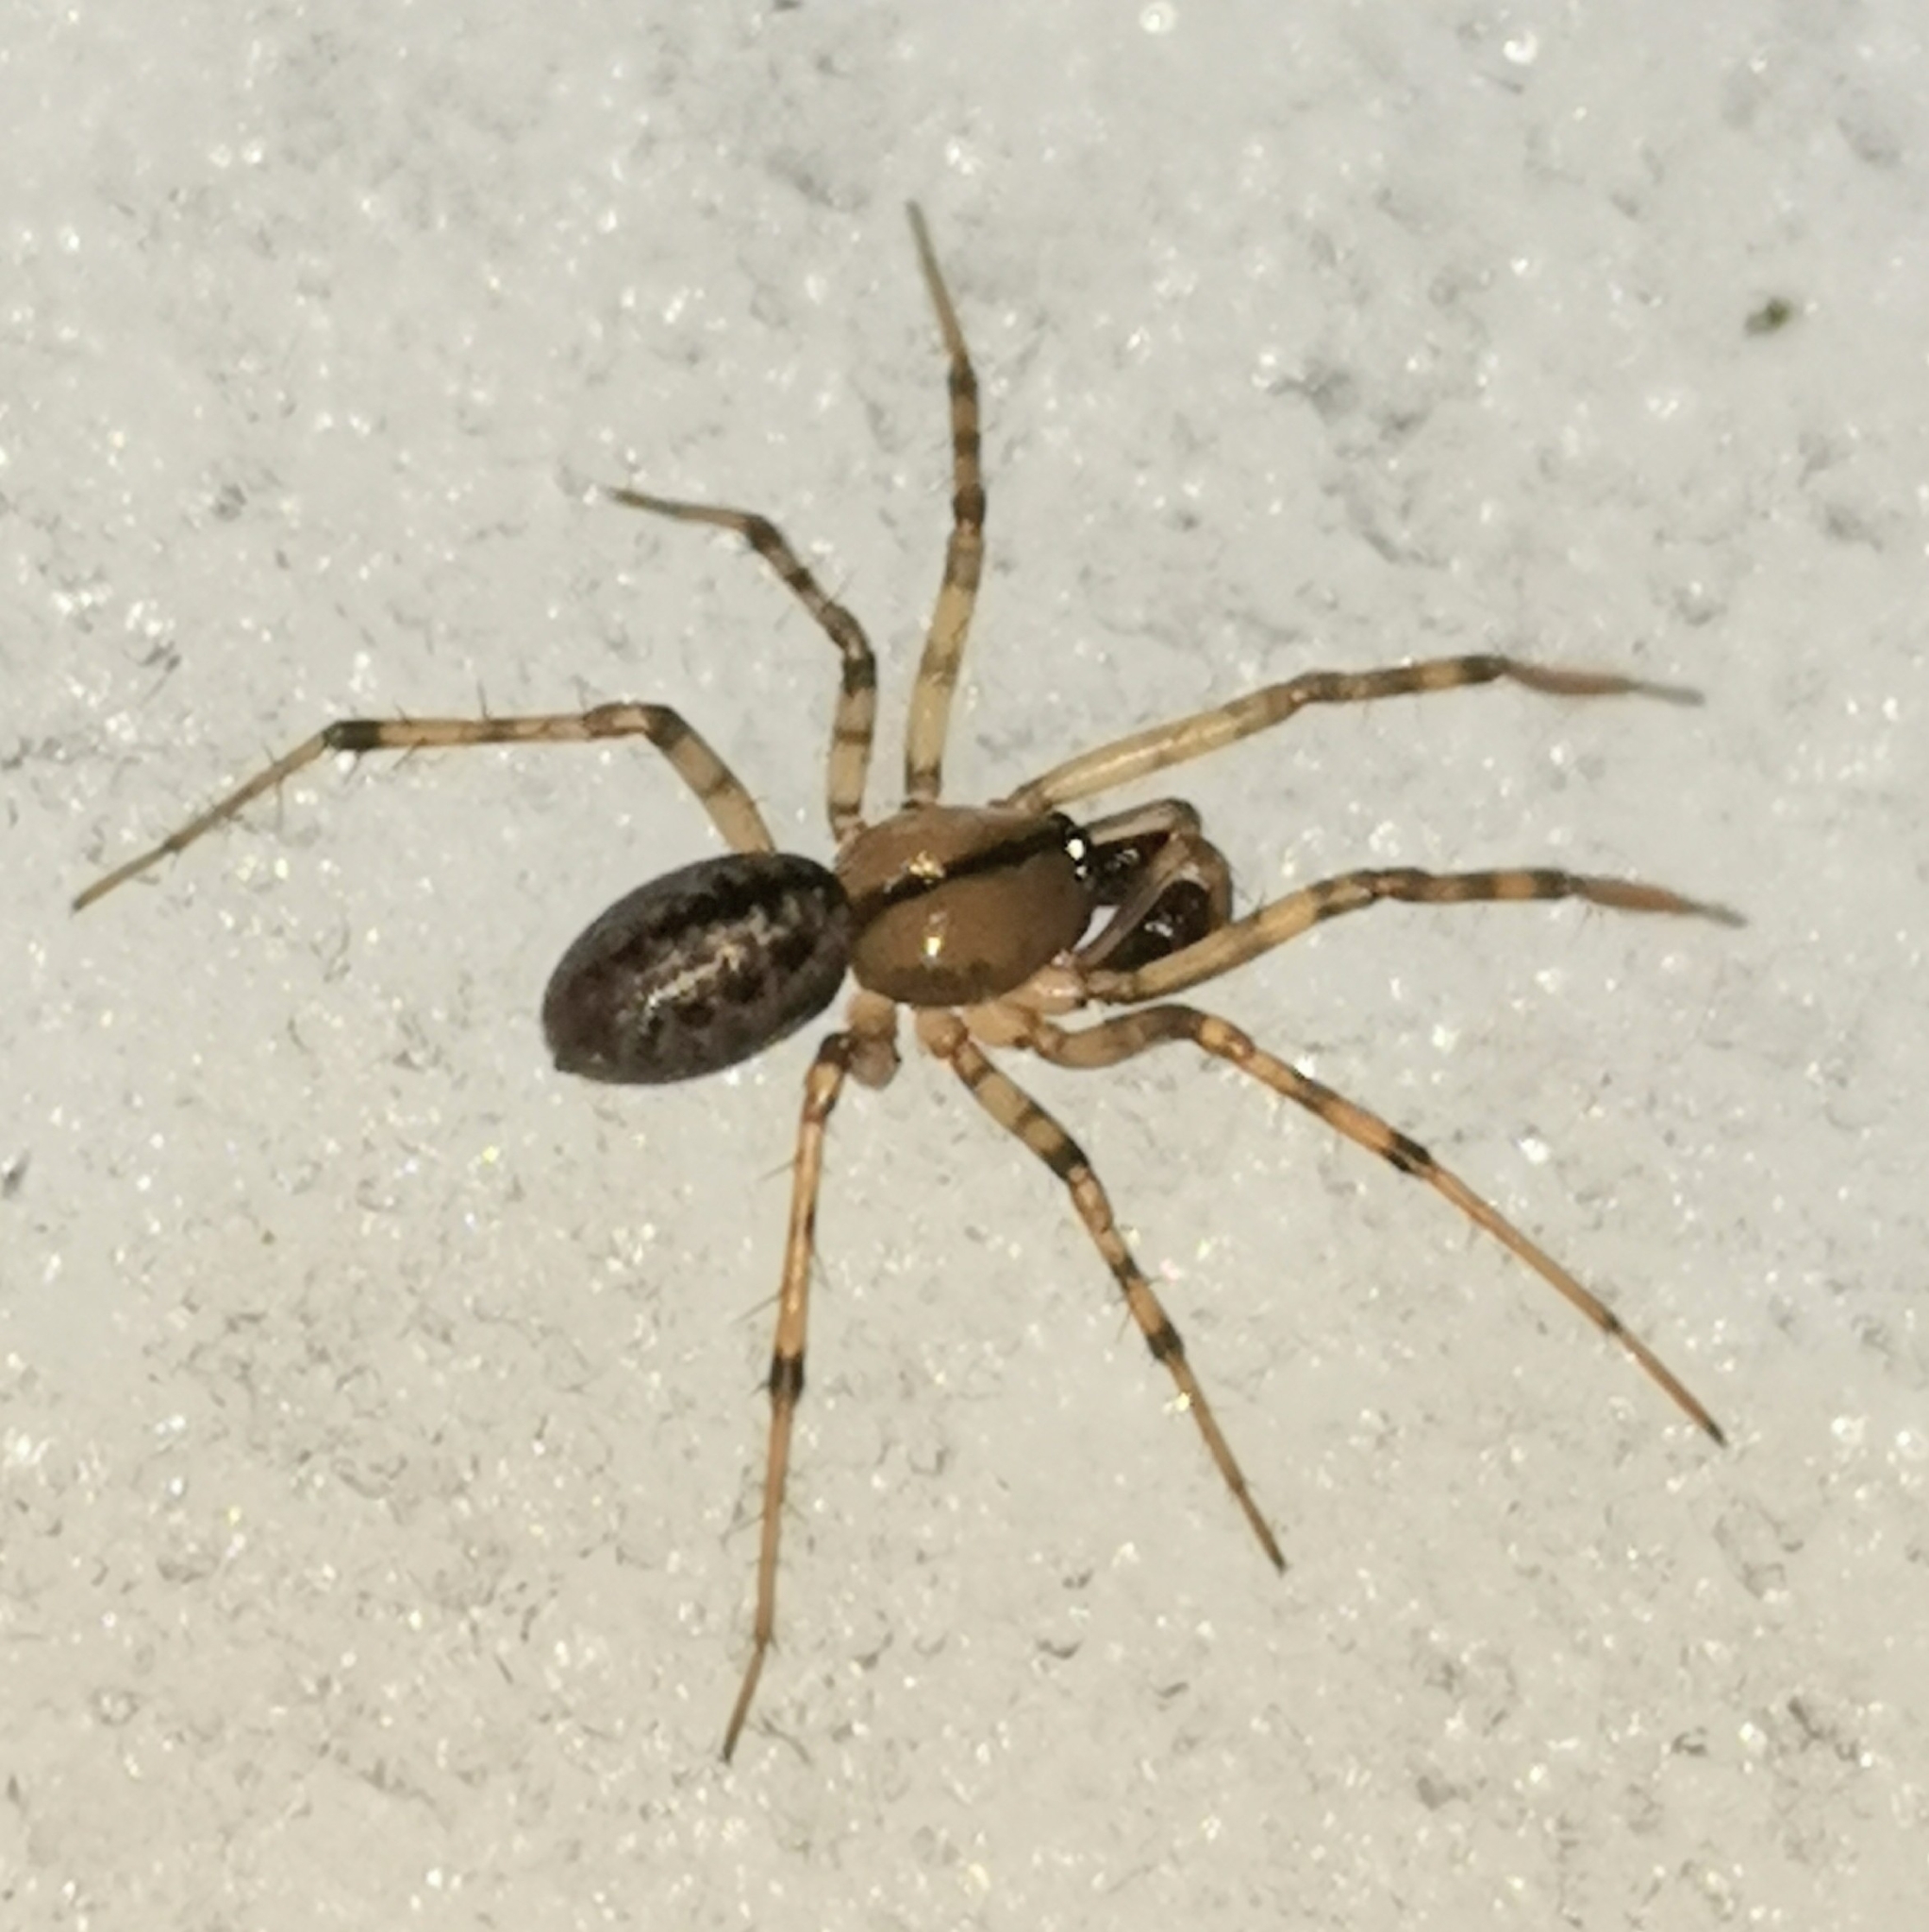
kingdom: Animalia
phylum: Arthropoda
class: Arachnida
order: Araneae
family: Linyphiidae
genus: Stemonyphantes
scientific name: Stemonyphantes lineatus
